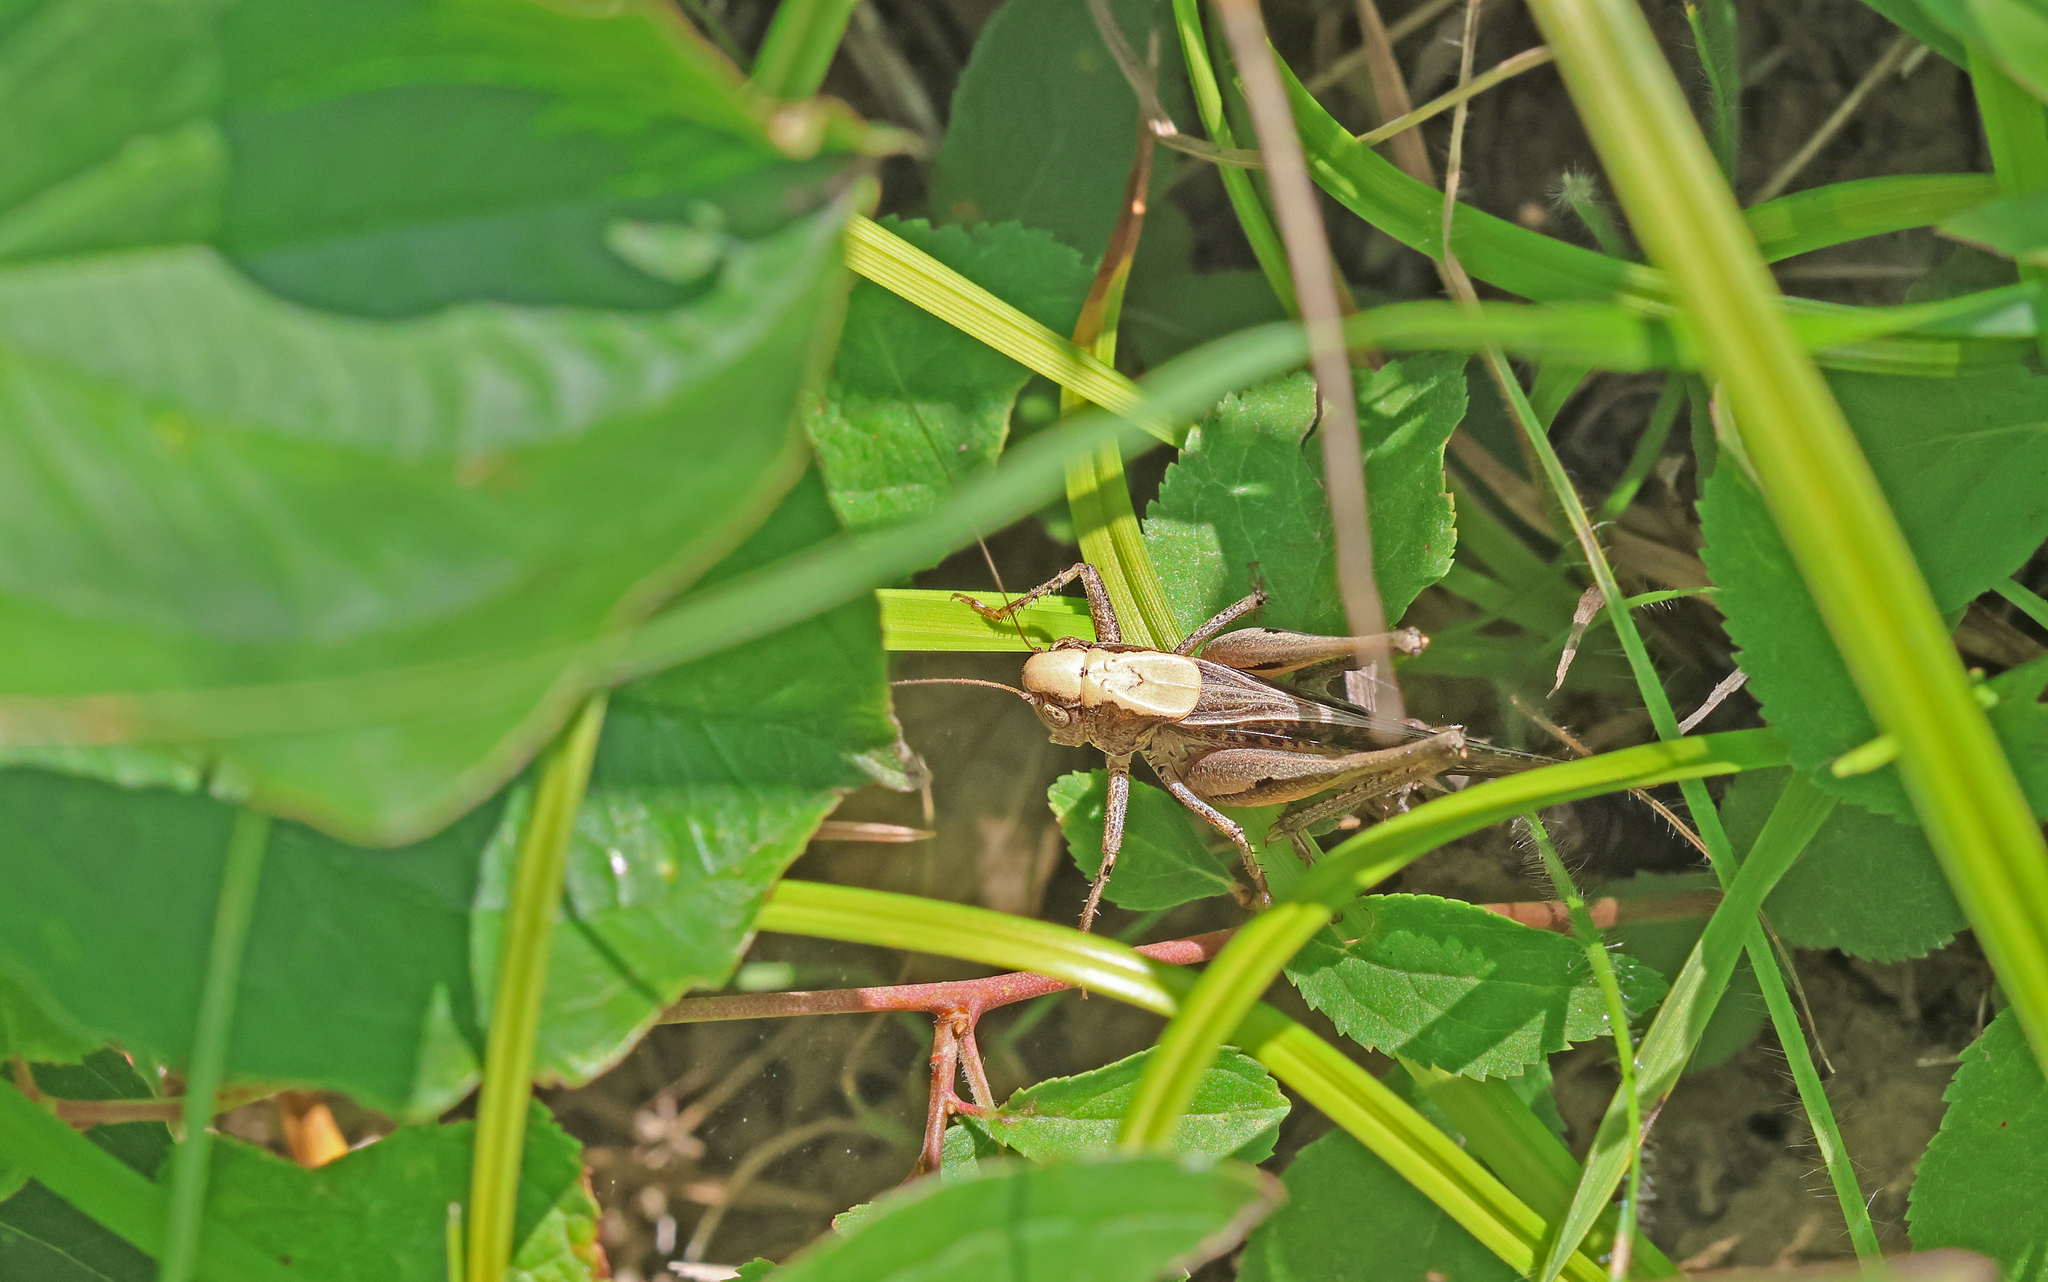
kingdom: Animalia
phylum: Arthropoda
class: Insecta
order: Orthoptera
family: Tettigoniidae
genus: Platycleis
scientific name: Platycleis grisea
